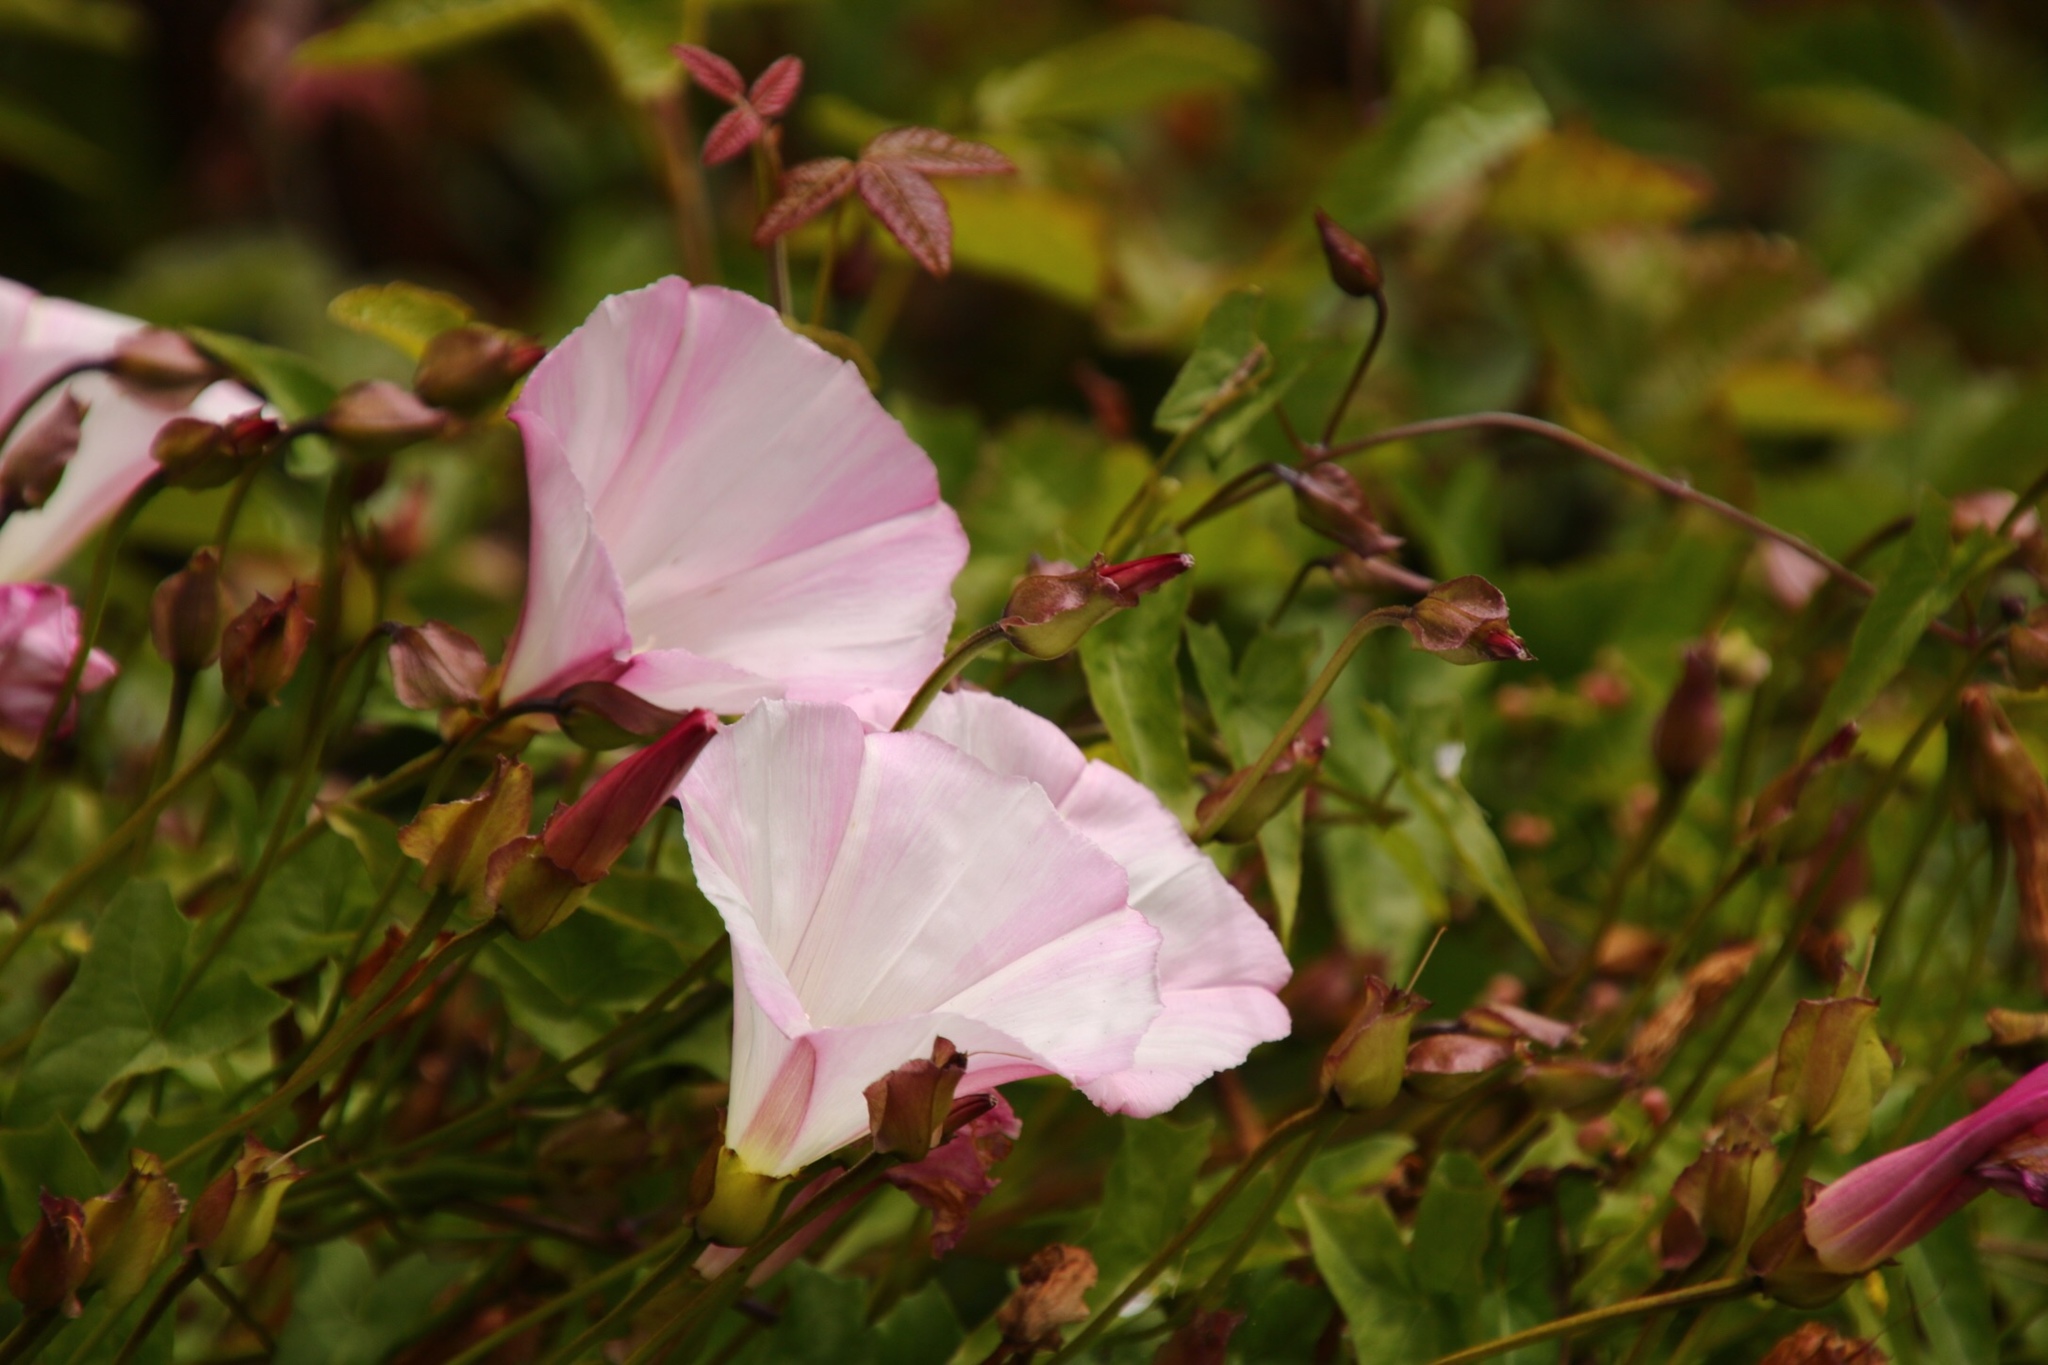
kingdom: Plantae
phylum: Tracheophyta
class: Magnoliopsida
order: Solanales
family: Convolvulaceae
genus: Calystegia
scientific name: Calystegia macrostegia
